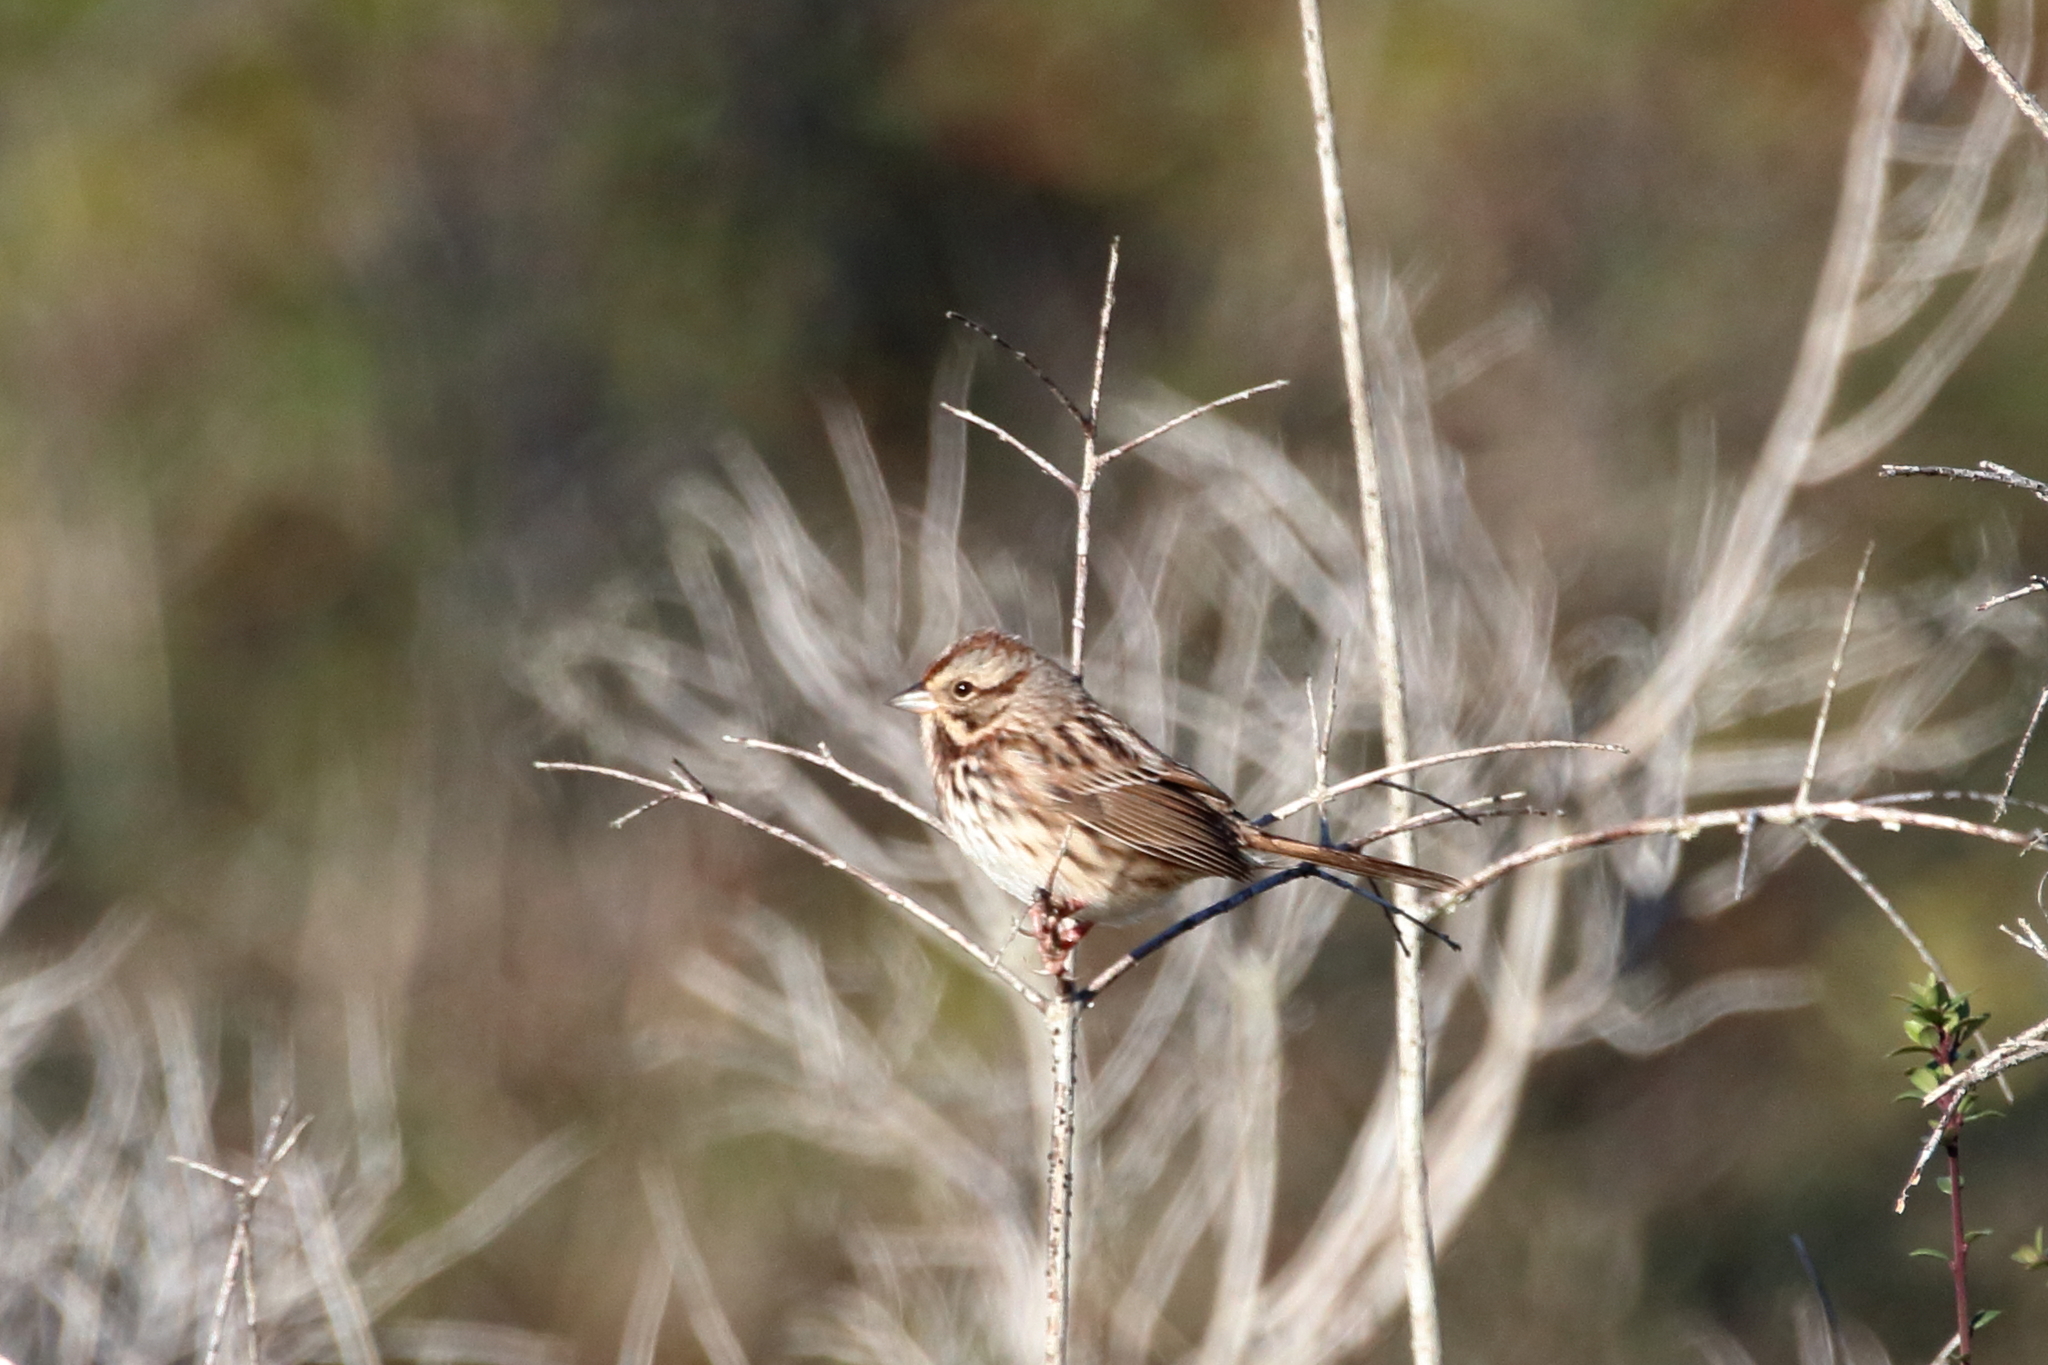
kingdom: Animalia
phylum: Chordata
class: Aves
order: Passeriformes
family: Passerellidae
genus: Melospiza
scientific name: Melospiza melodia
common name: Song sparrow
